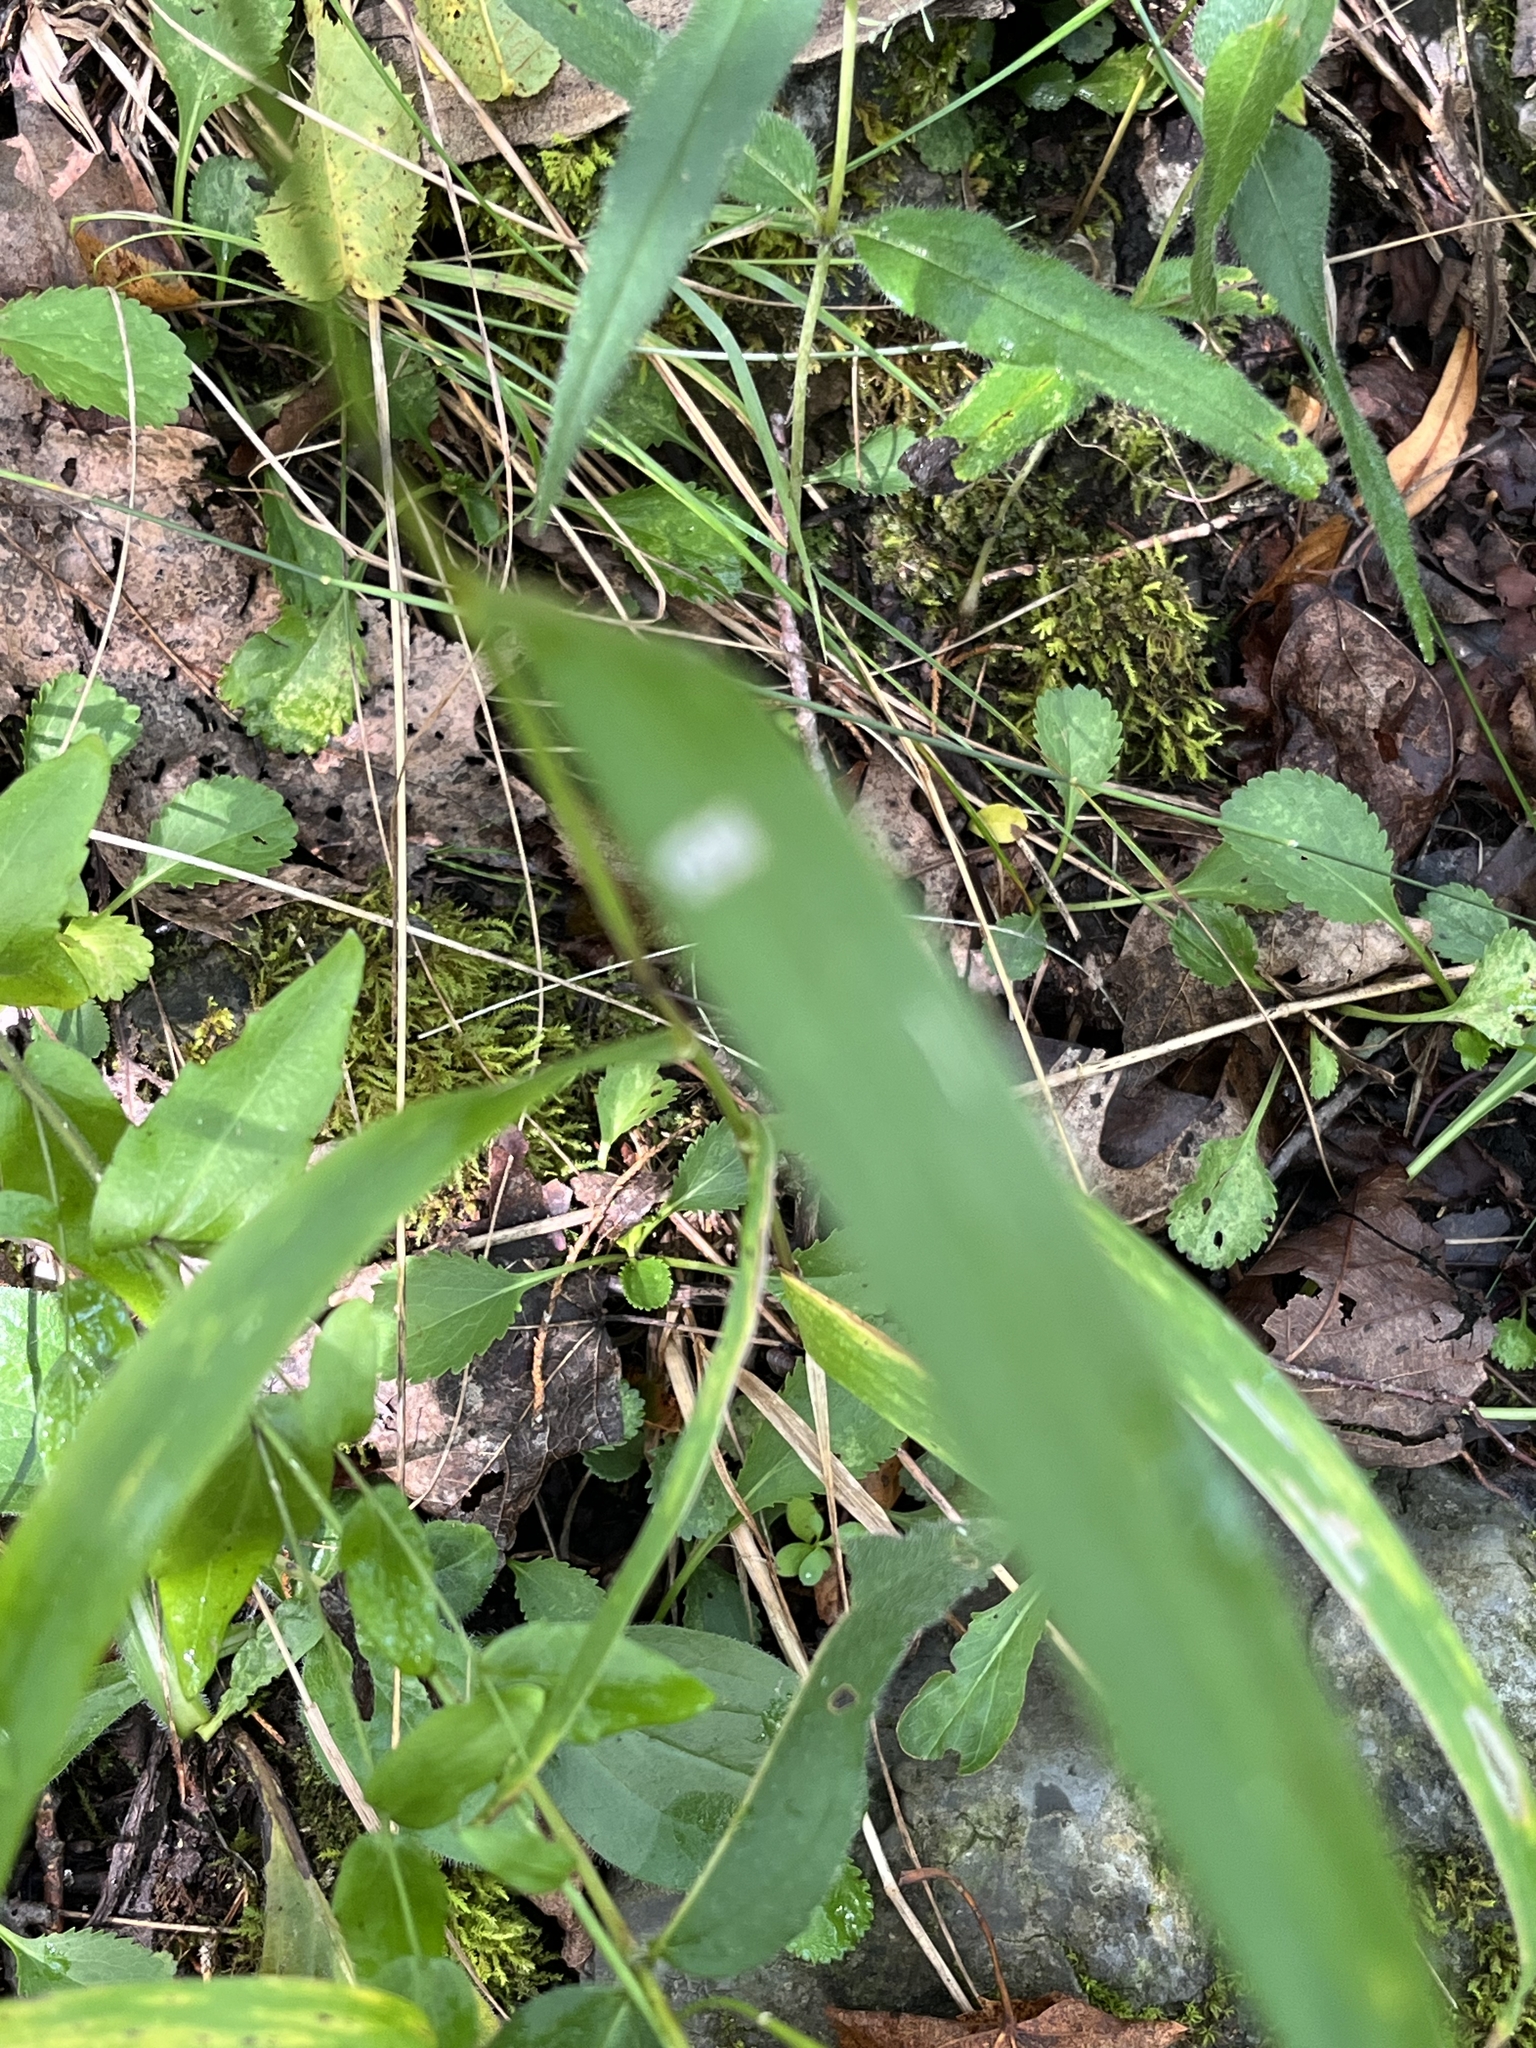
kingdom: Plantae
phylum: Tracheophyta
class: Liliopsida
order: Poales
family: Poaceae
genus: Elymus
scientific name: Elymus hystrix
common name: Bottlebrush grass
